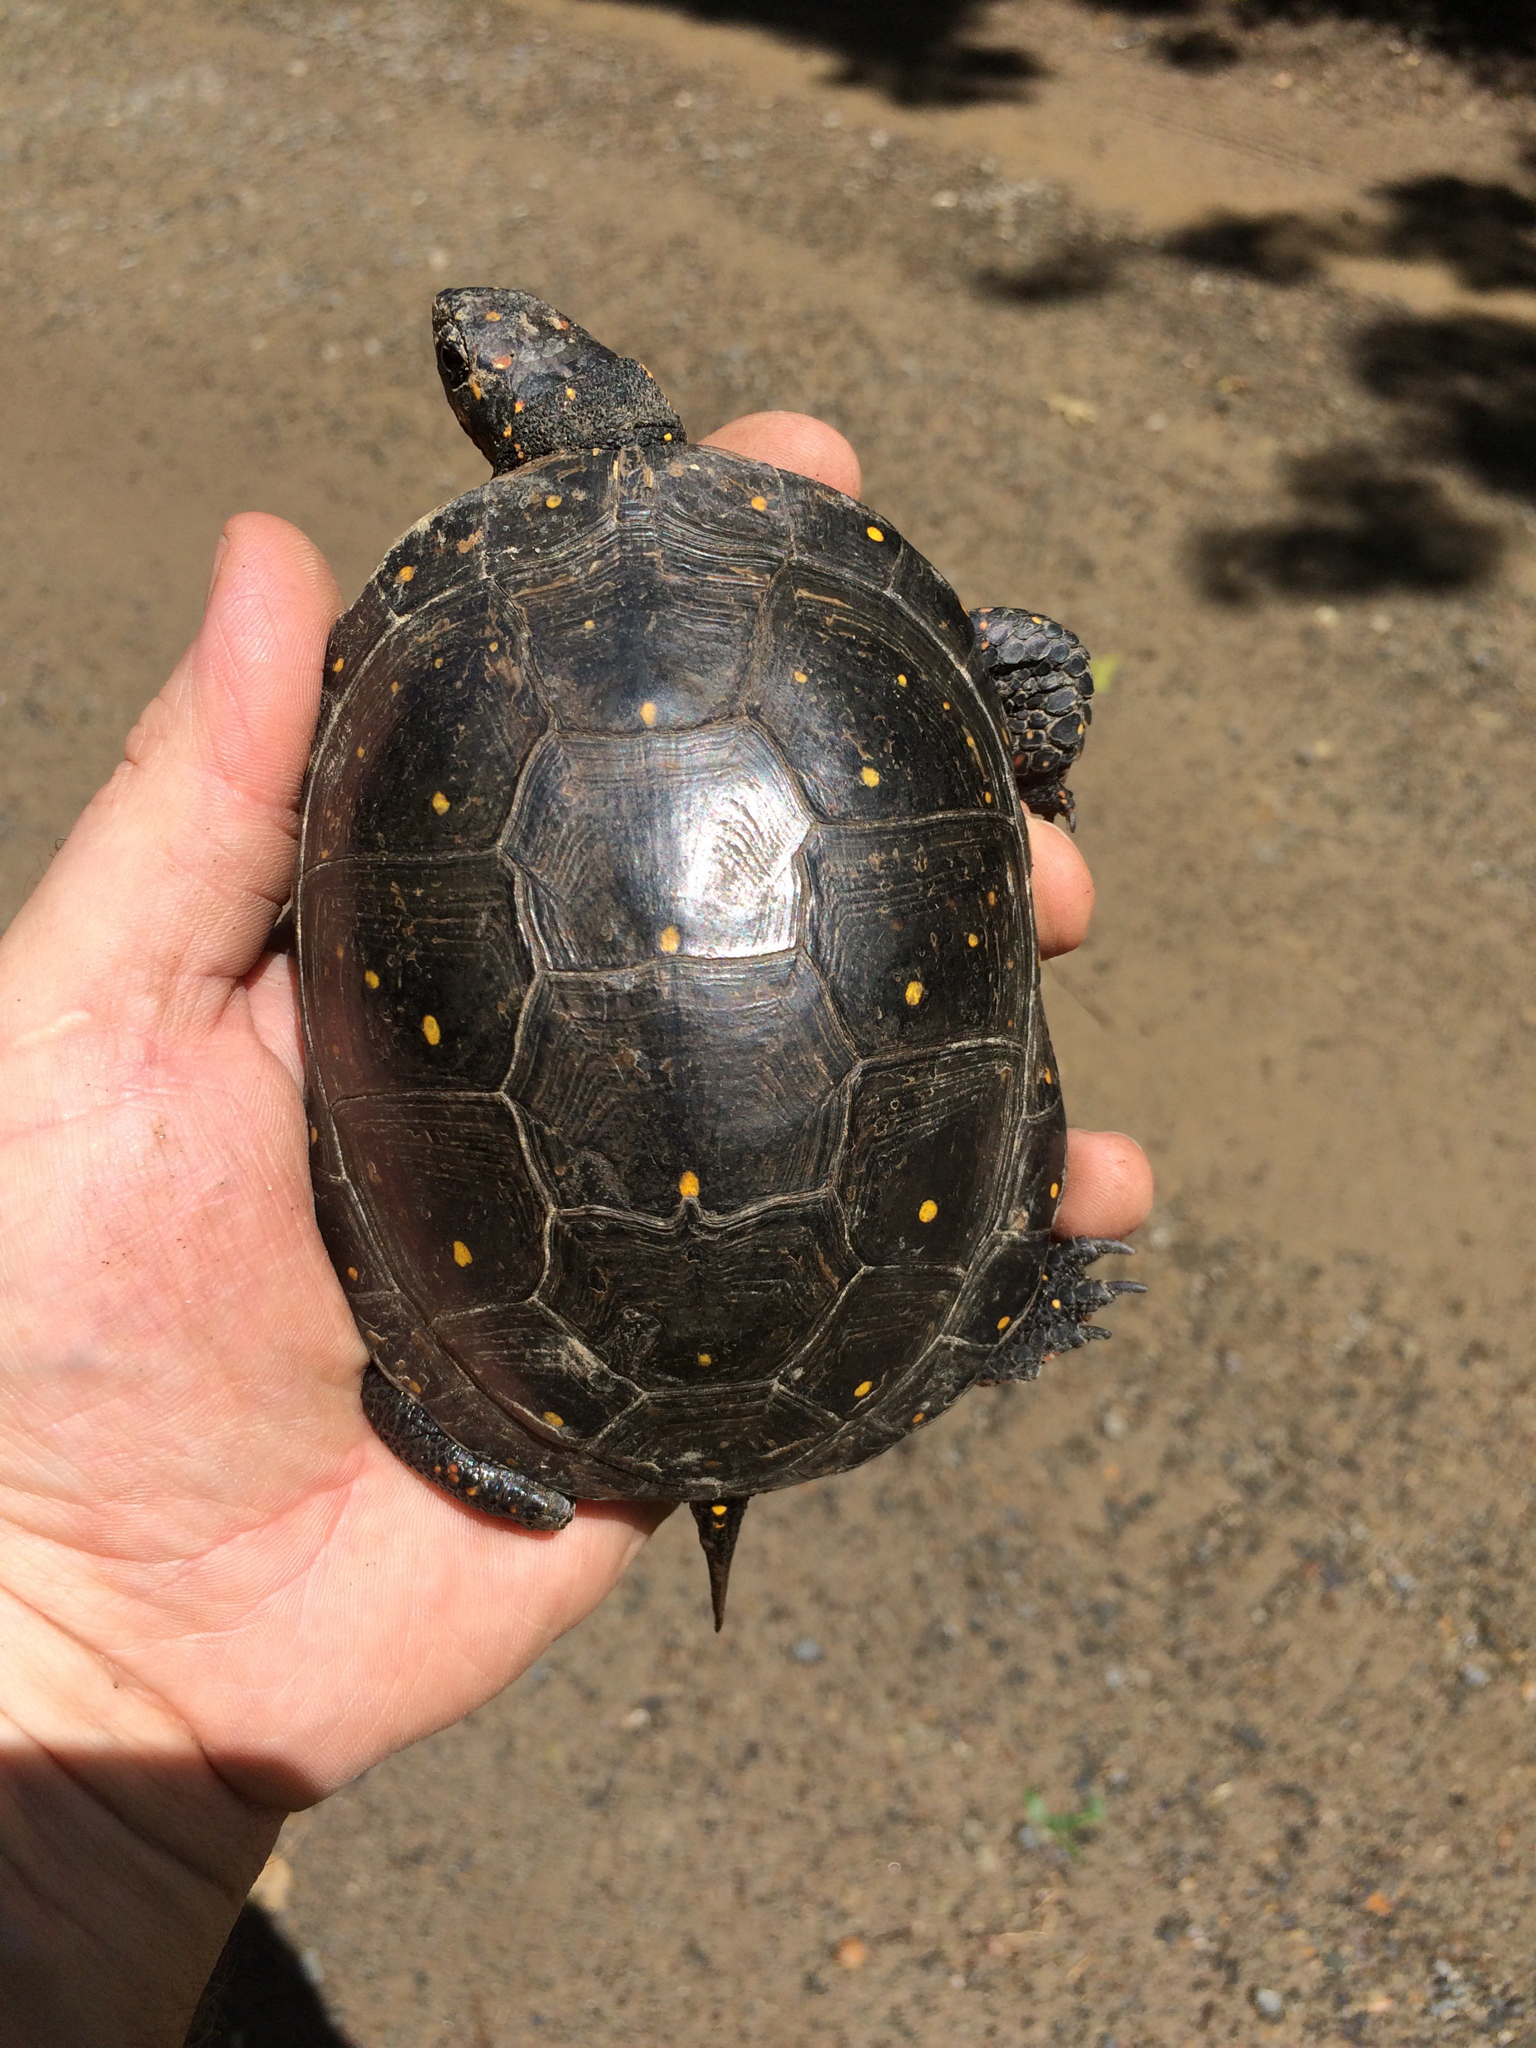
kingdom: Animalia
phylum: Chordata
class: Testudines
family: Emydidae
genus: Clemmys
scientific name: Clemmys guttata
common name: Spotted turtle
